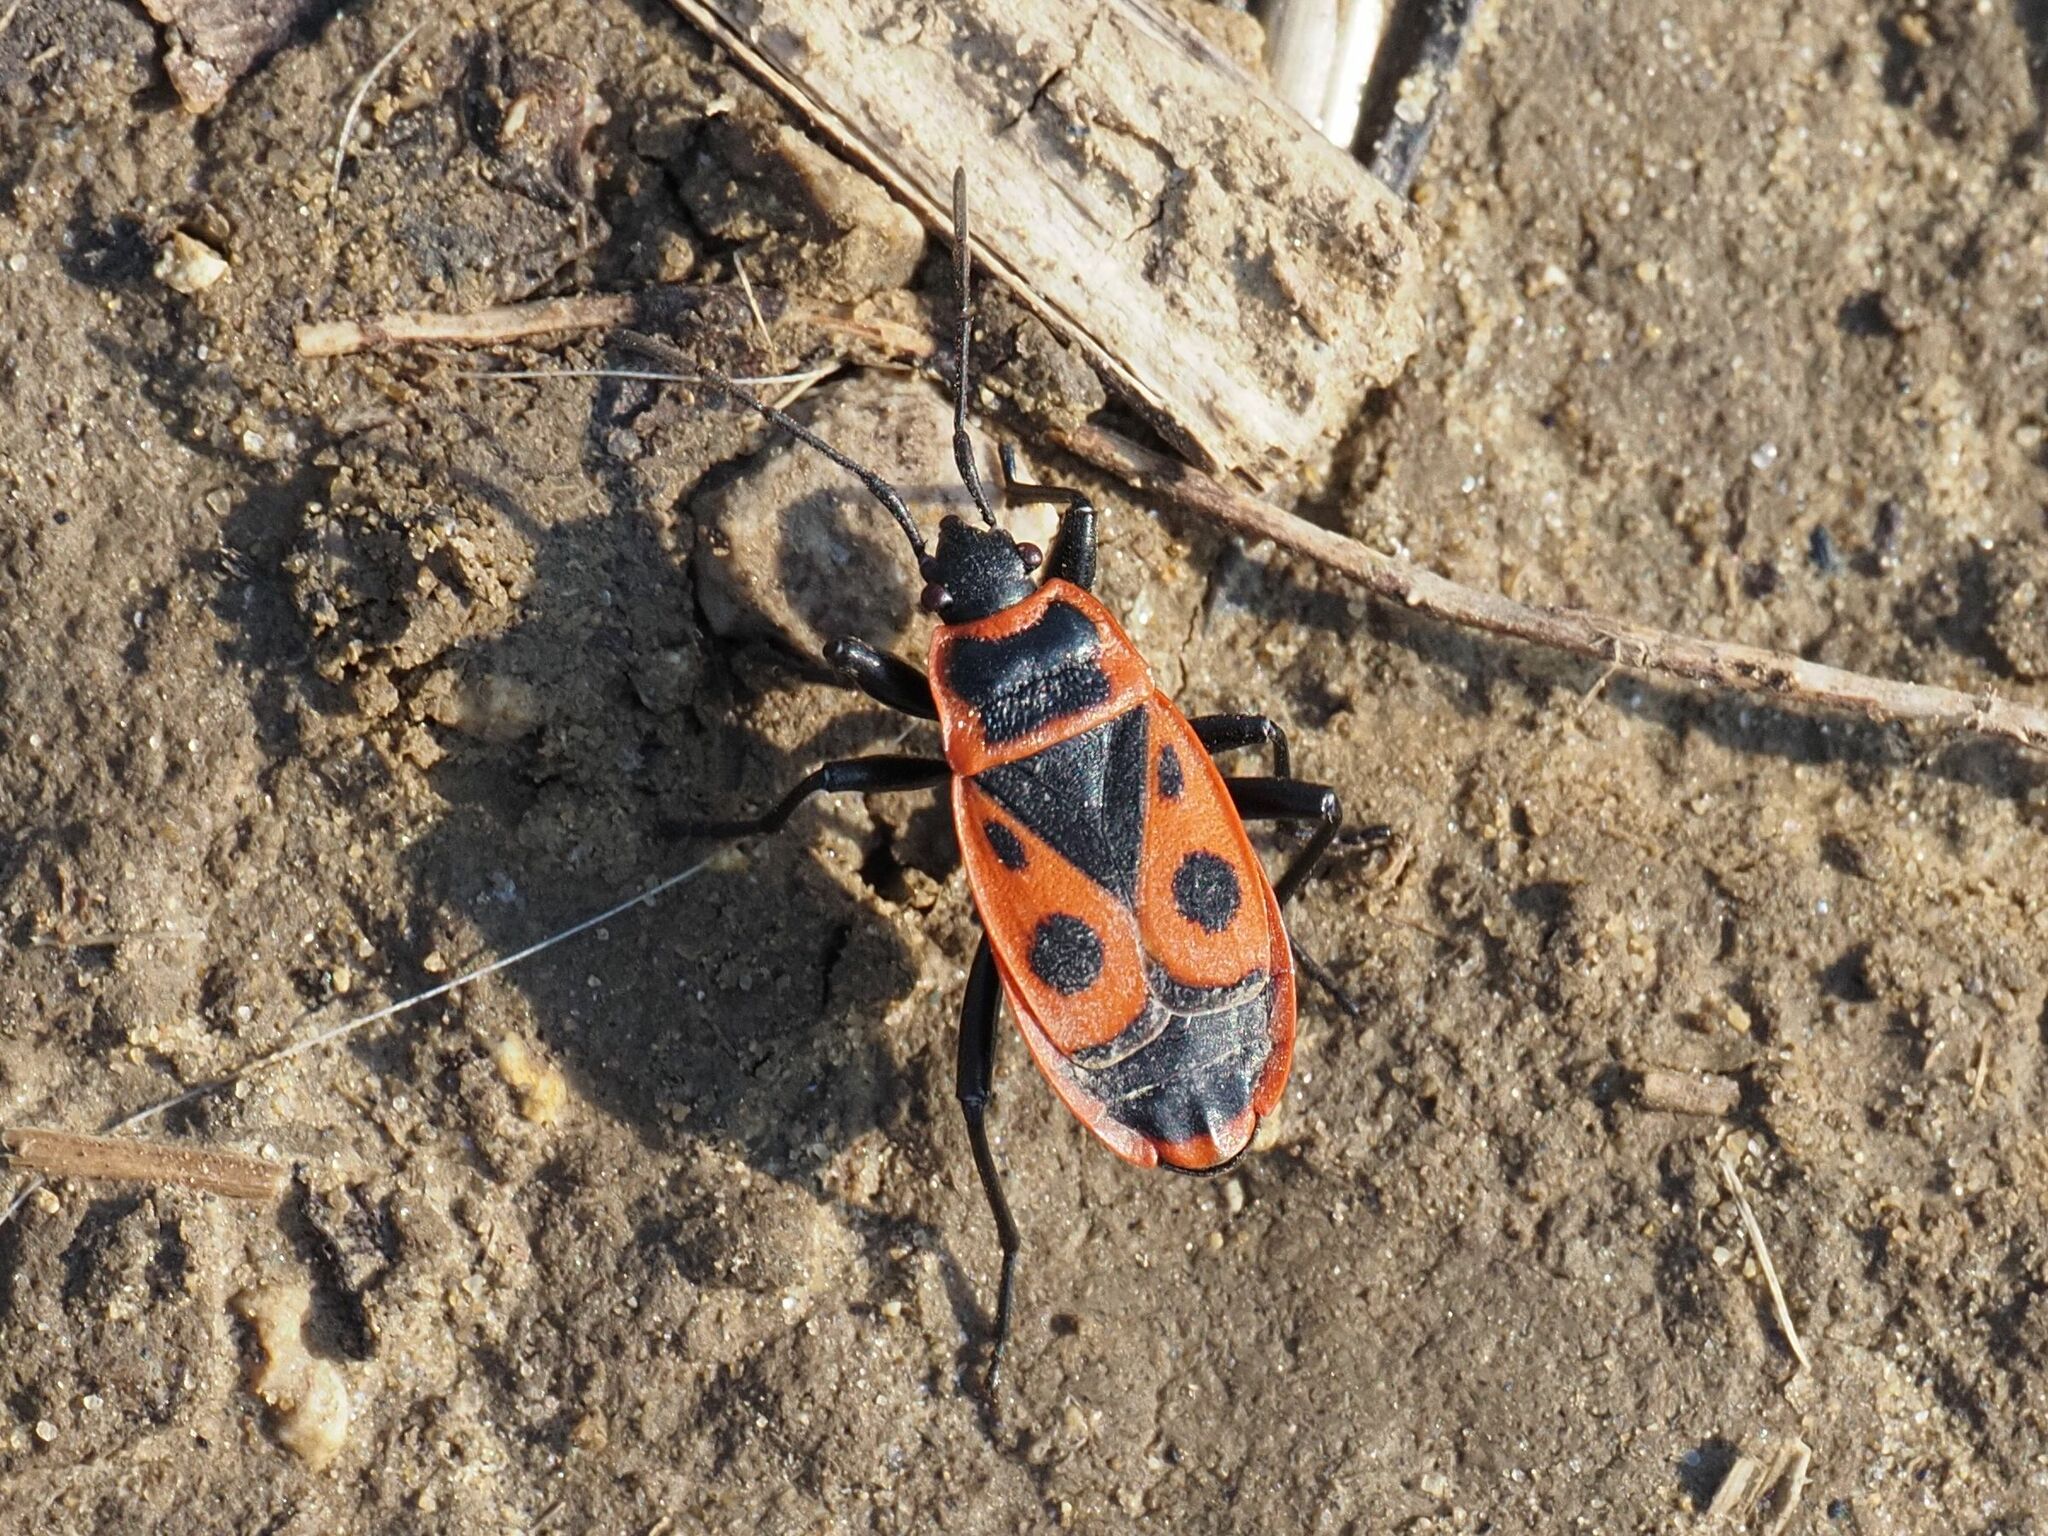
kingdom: Animalia
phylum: Arthropoda
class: Insecta
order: Hemiptera
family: Pyrrhocoridae
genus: Pyrrhocoris
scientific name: Pyrrhocoris apterus
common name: Firebug
